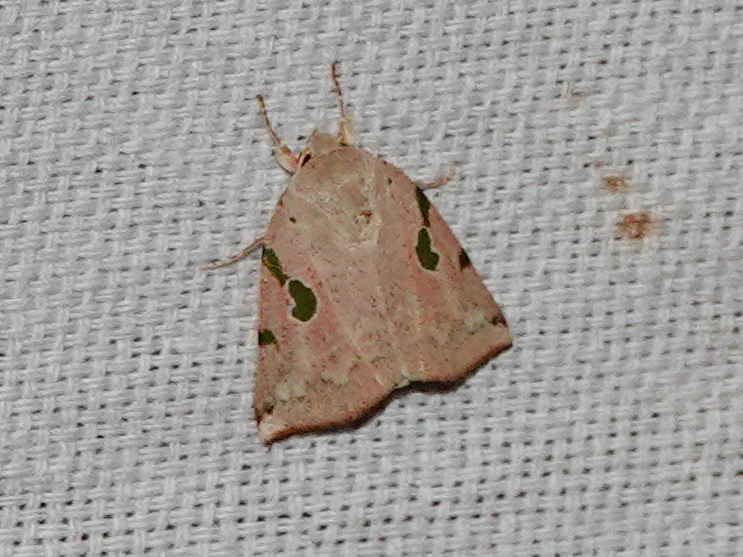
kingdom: Animalia
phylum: Arthropoda
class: Insecta
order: Lepidoptera
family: Nolidae
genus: Chloroplaga
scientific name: Chloroplaga pallida
